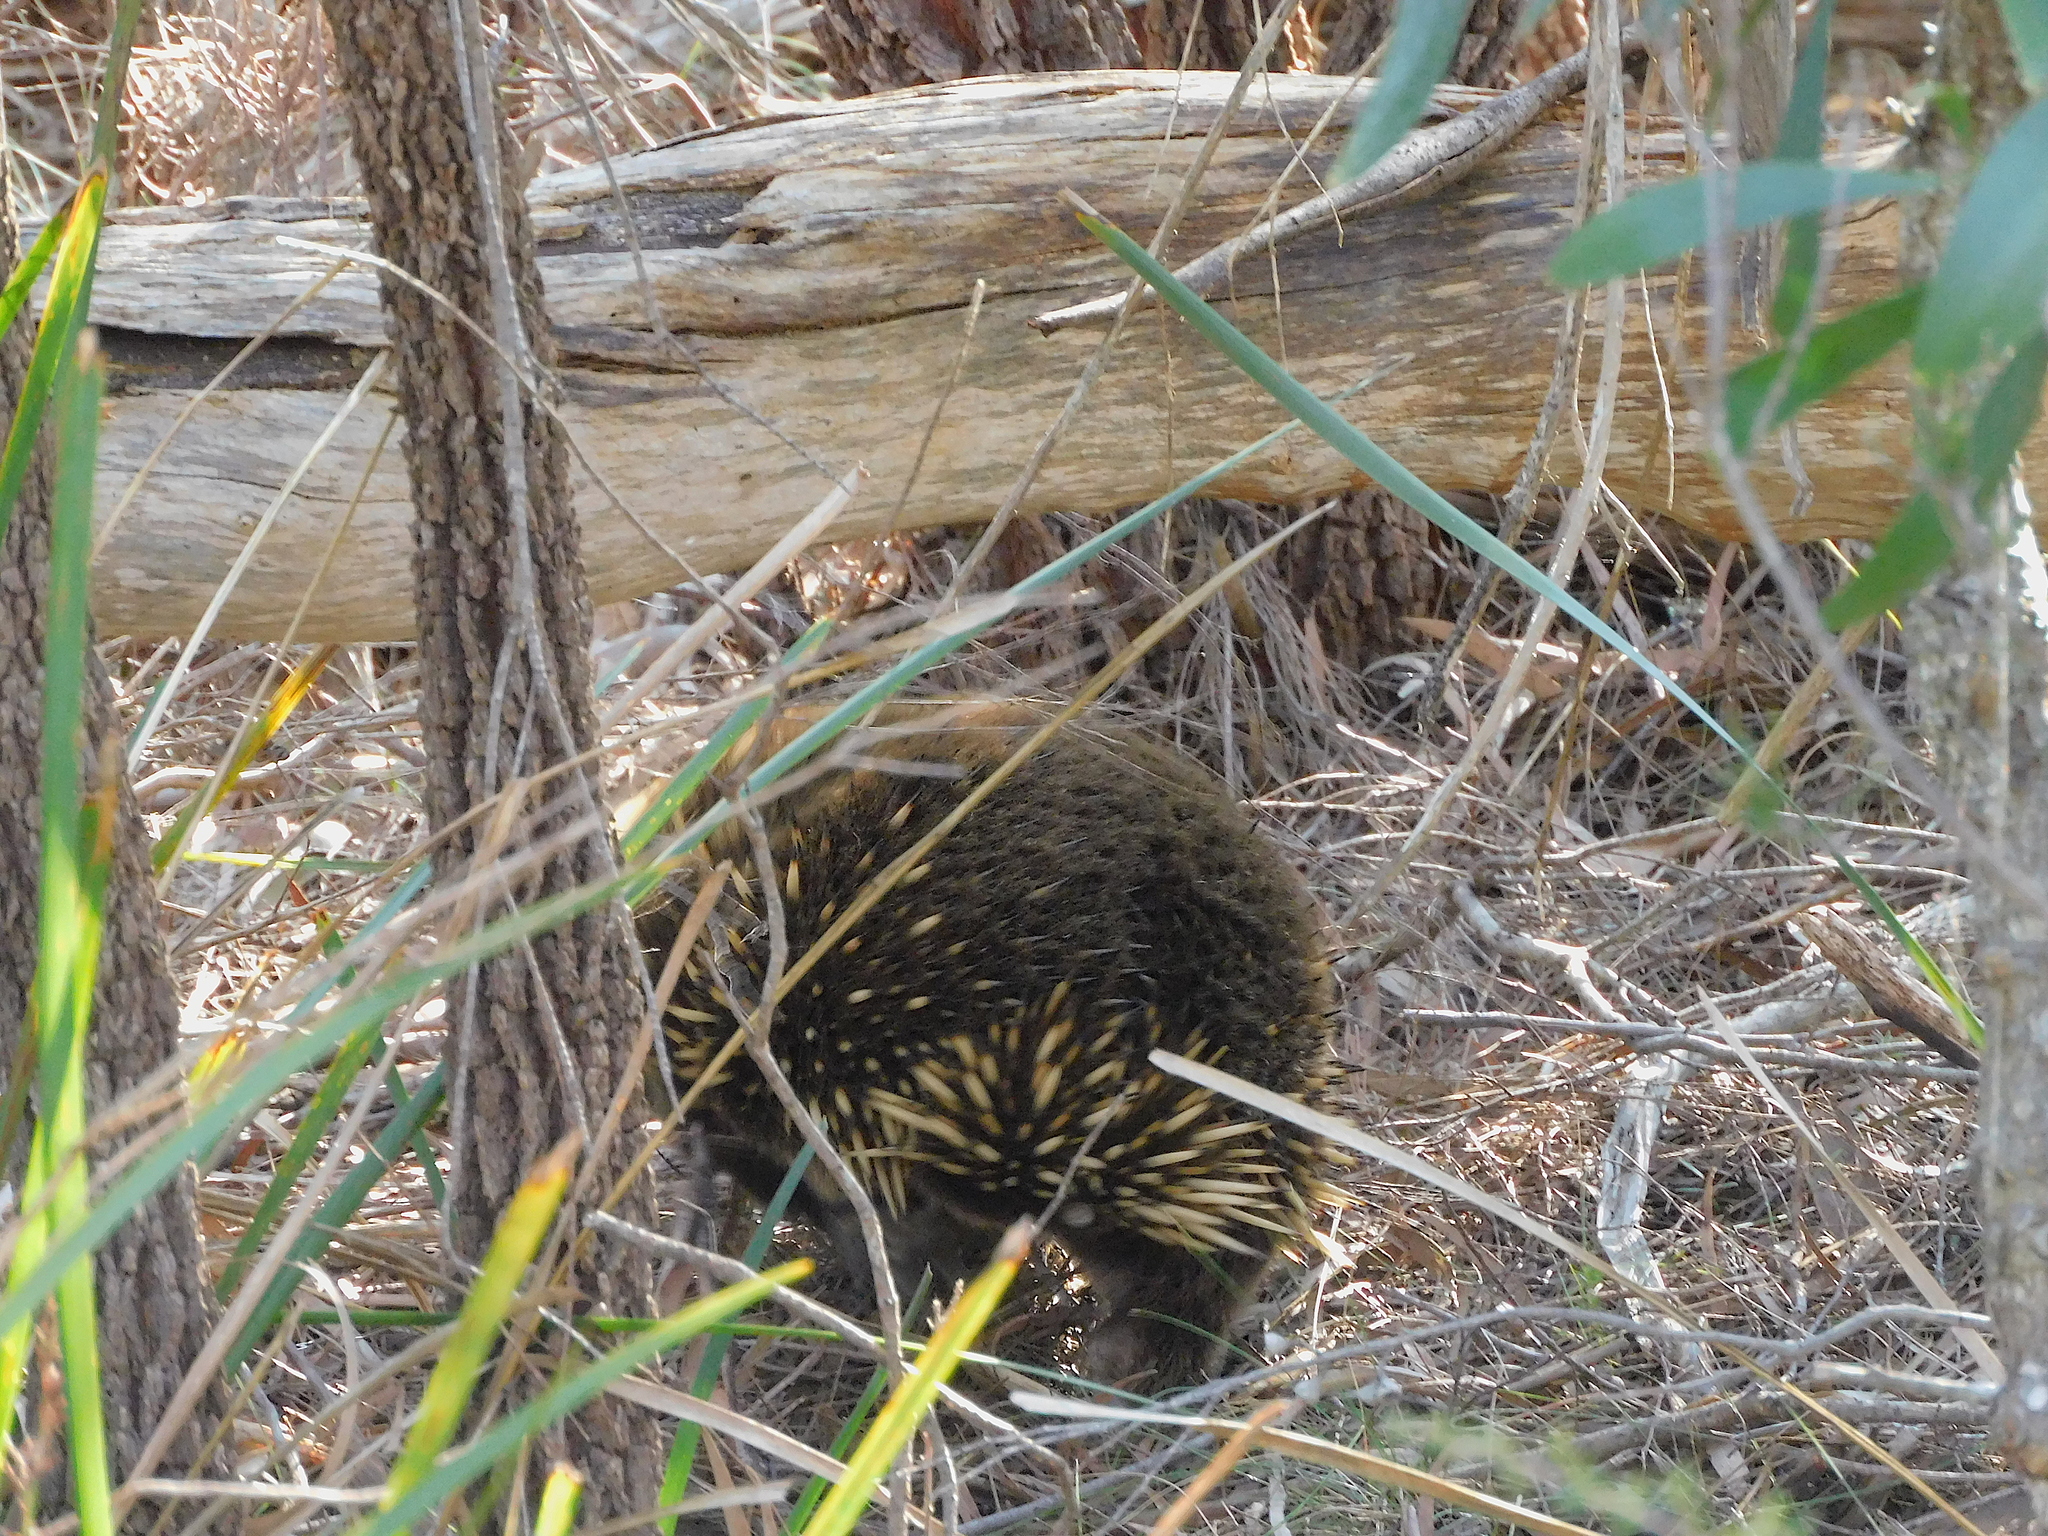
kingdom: Animalia
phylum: Chordata
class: Mammalia
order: Monotremata
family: Tachyglossidae
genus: Tachyglossus
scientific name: Tachyglossus aculeatus
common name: Short-beaked echidna
